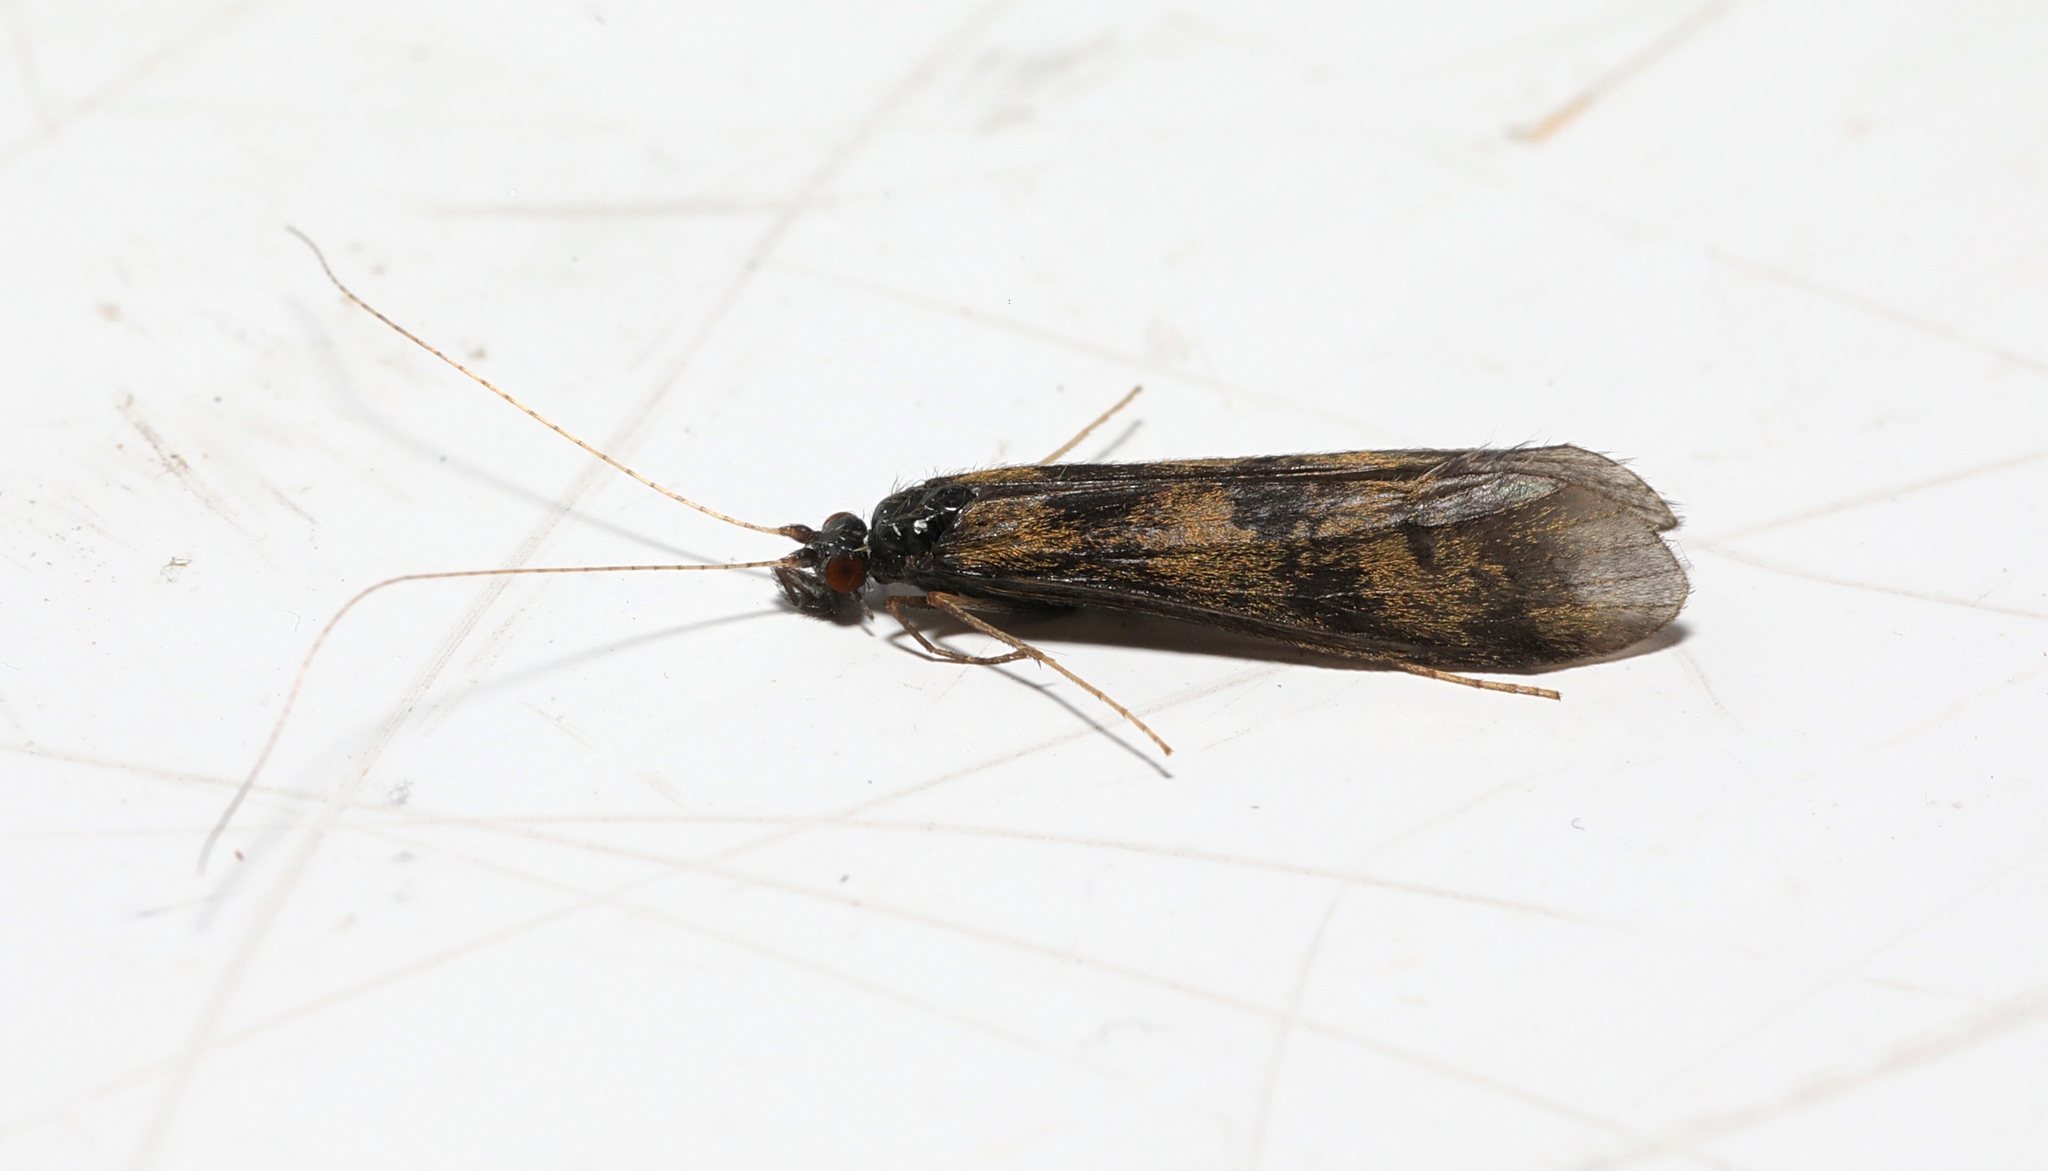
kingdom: Animalia
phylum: Arthropoda
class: Insecta
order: Trichoptera
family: Leptoceridae
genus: Mystacides
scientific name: Mystacides longicornis
